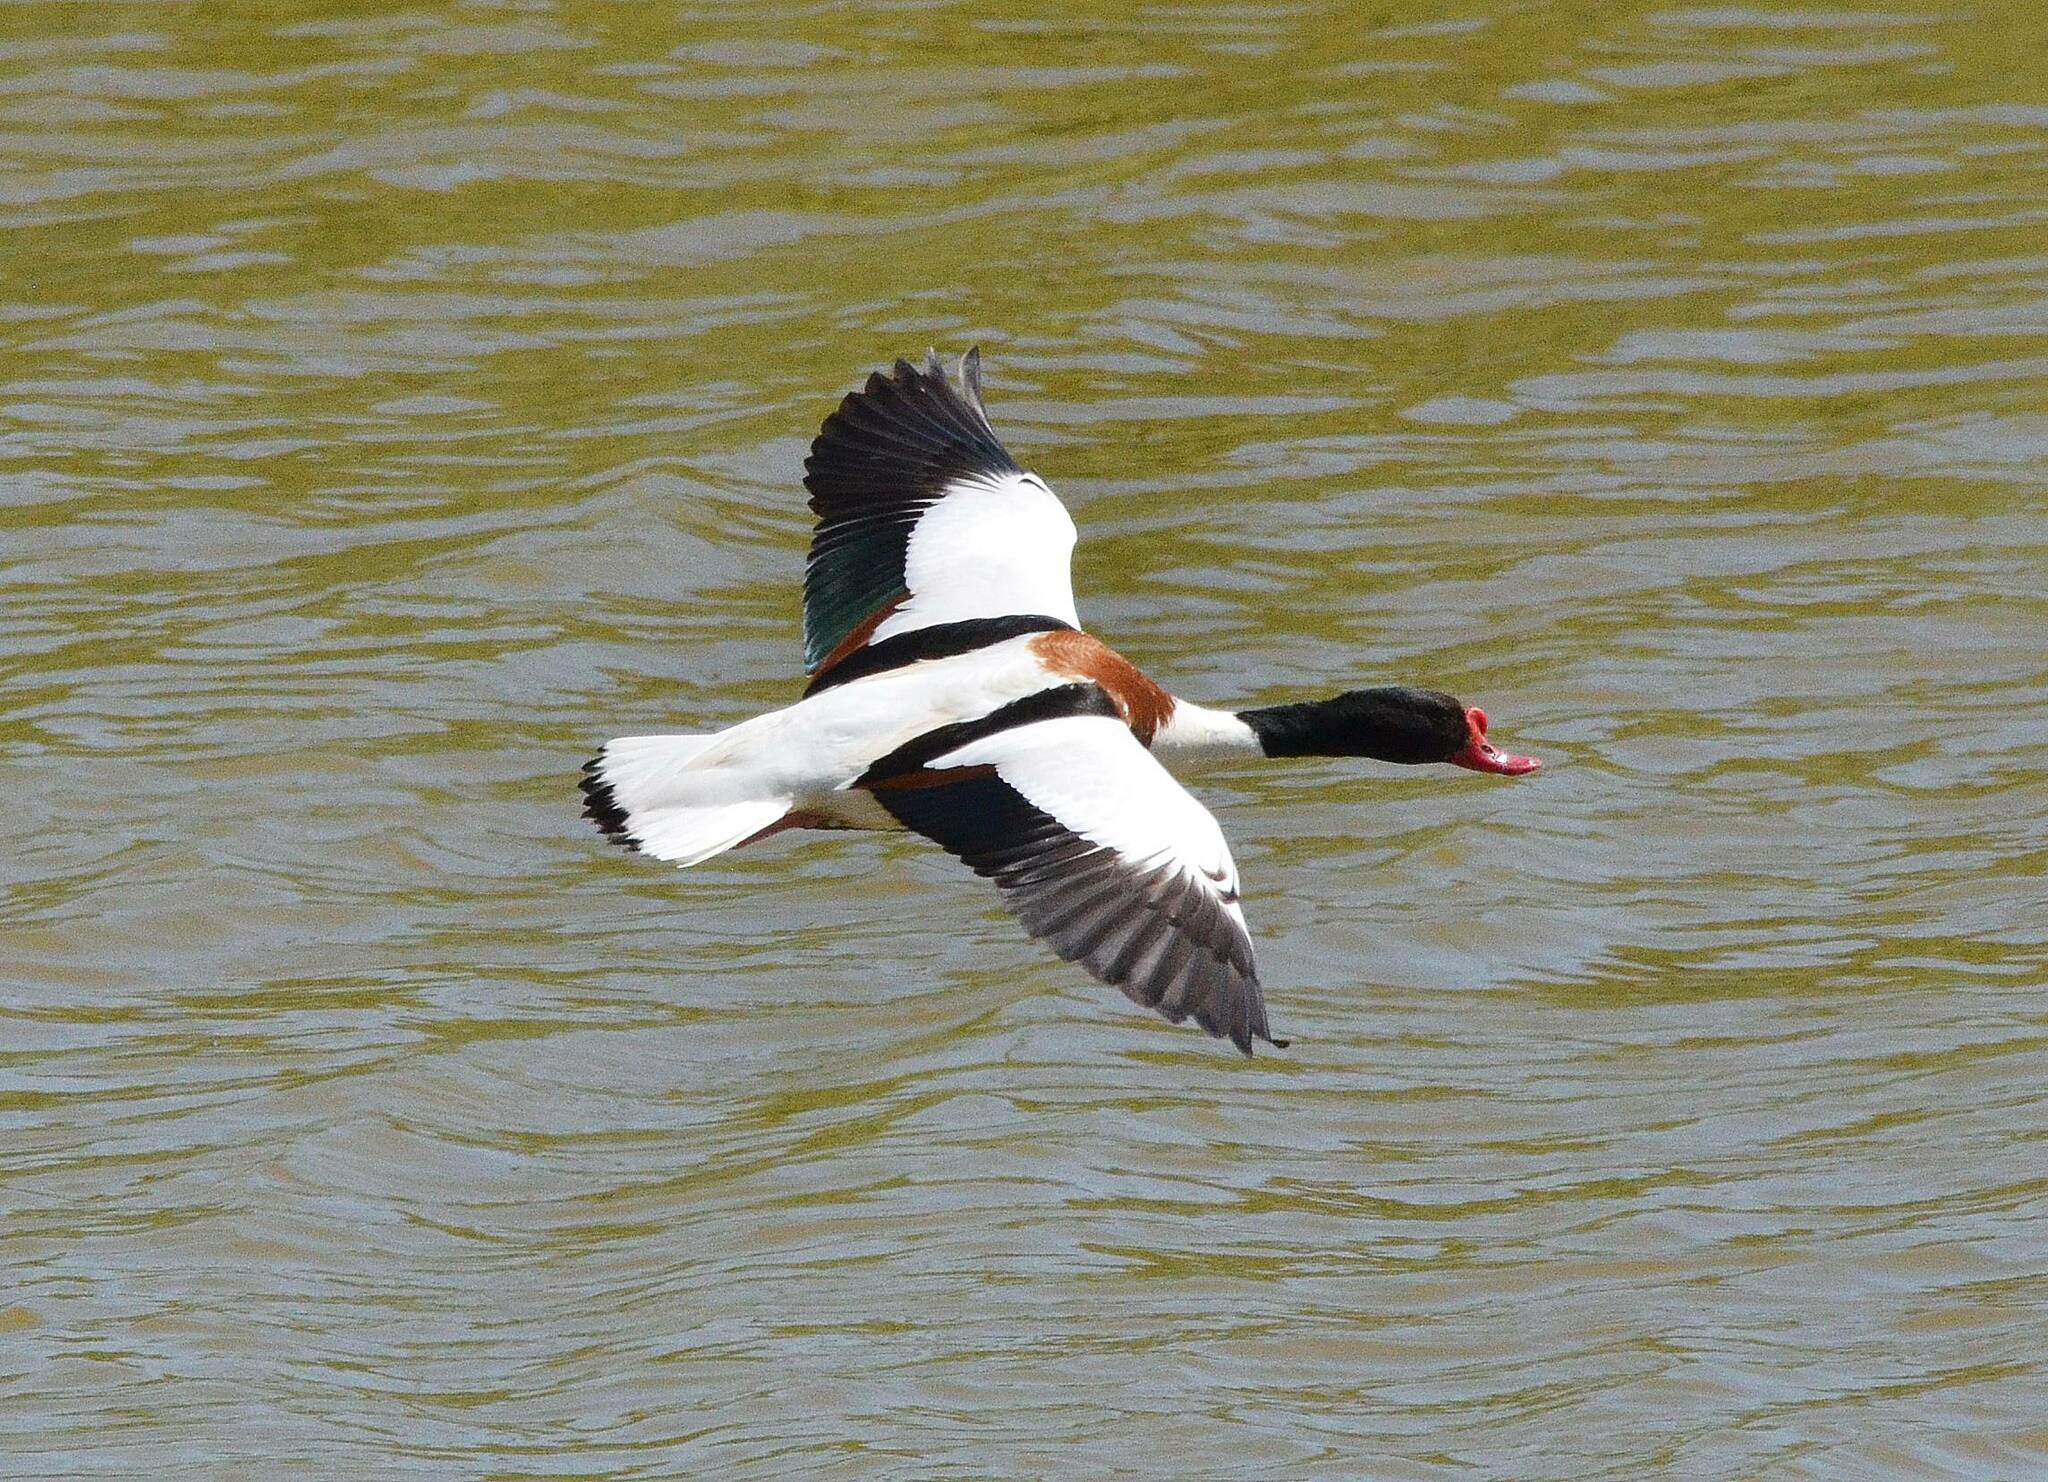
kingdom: Animalia
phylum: Chordata
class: Aves
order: Anseriformes
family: Anatidae
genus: Tadorna
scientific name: Tadorna tadorna
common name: Common shelduck
